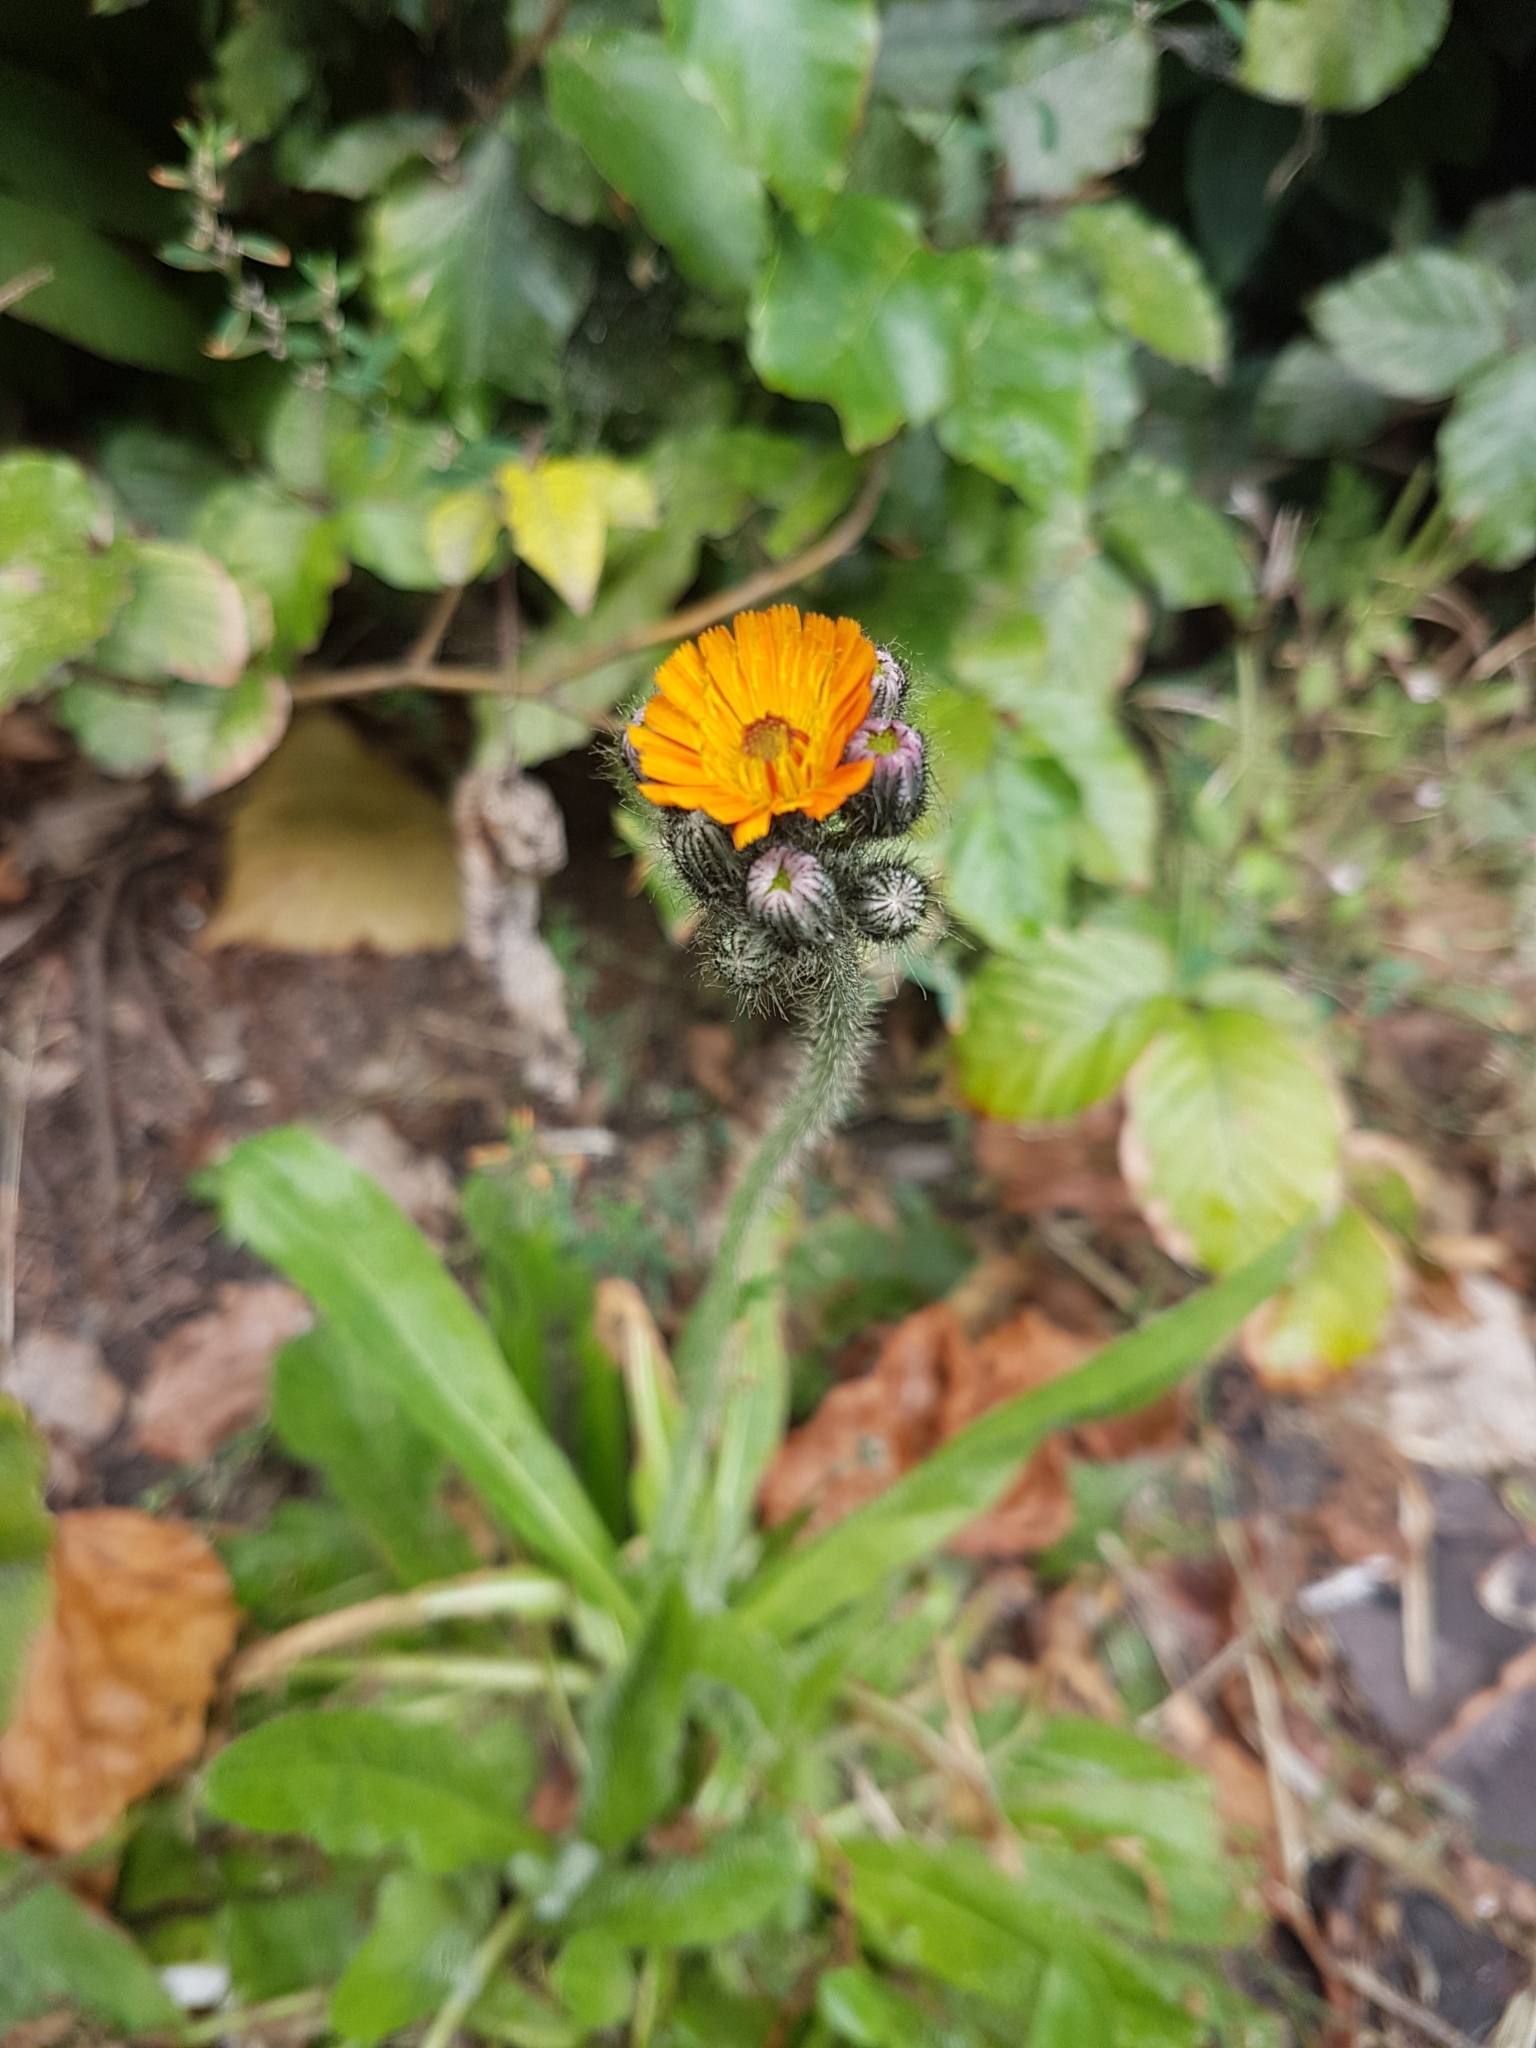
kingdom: Plantae
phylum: Tracheophyta
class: Magnoliopsida
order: Asterales
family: Asteraceae
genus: Pilosella
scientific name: Pilosella aurantiaca
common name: Fox-and-cubs
